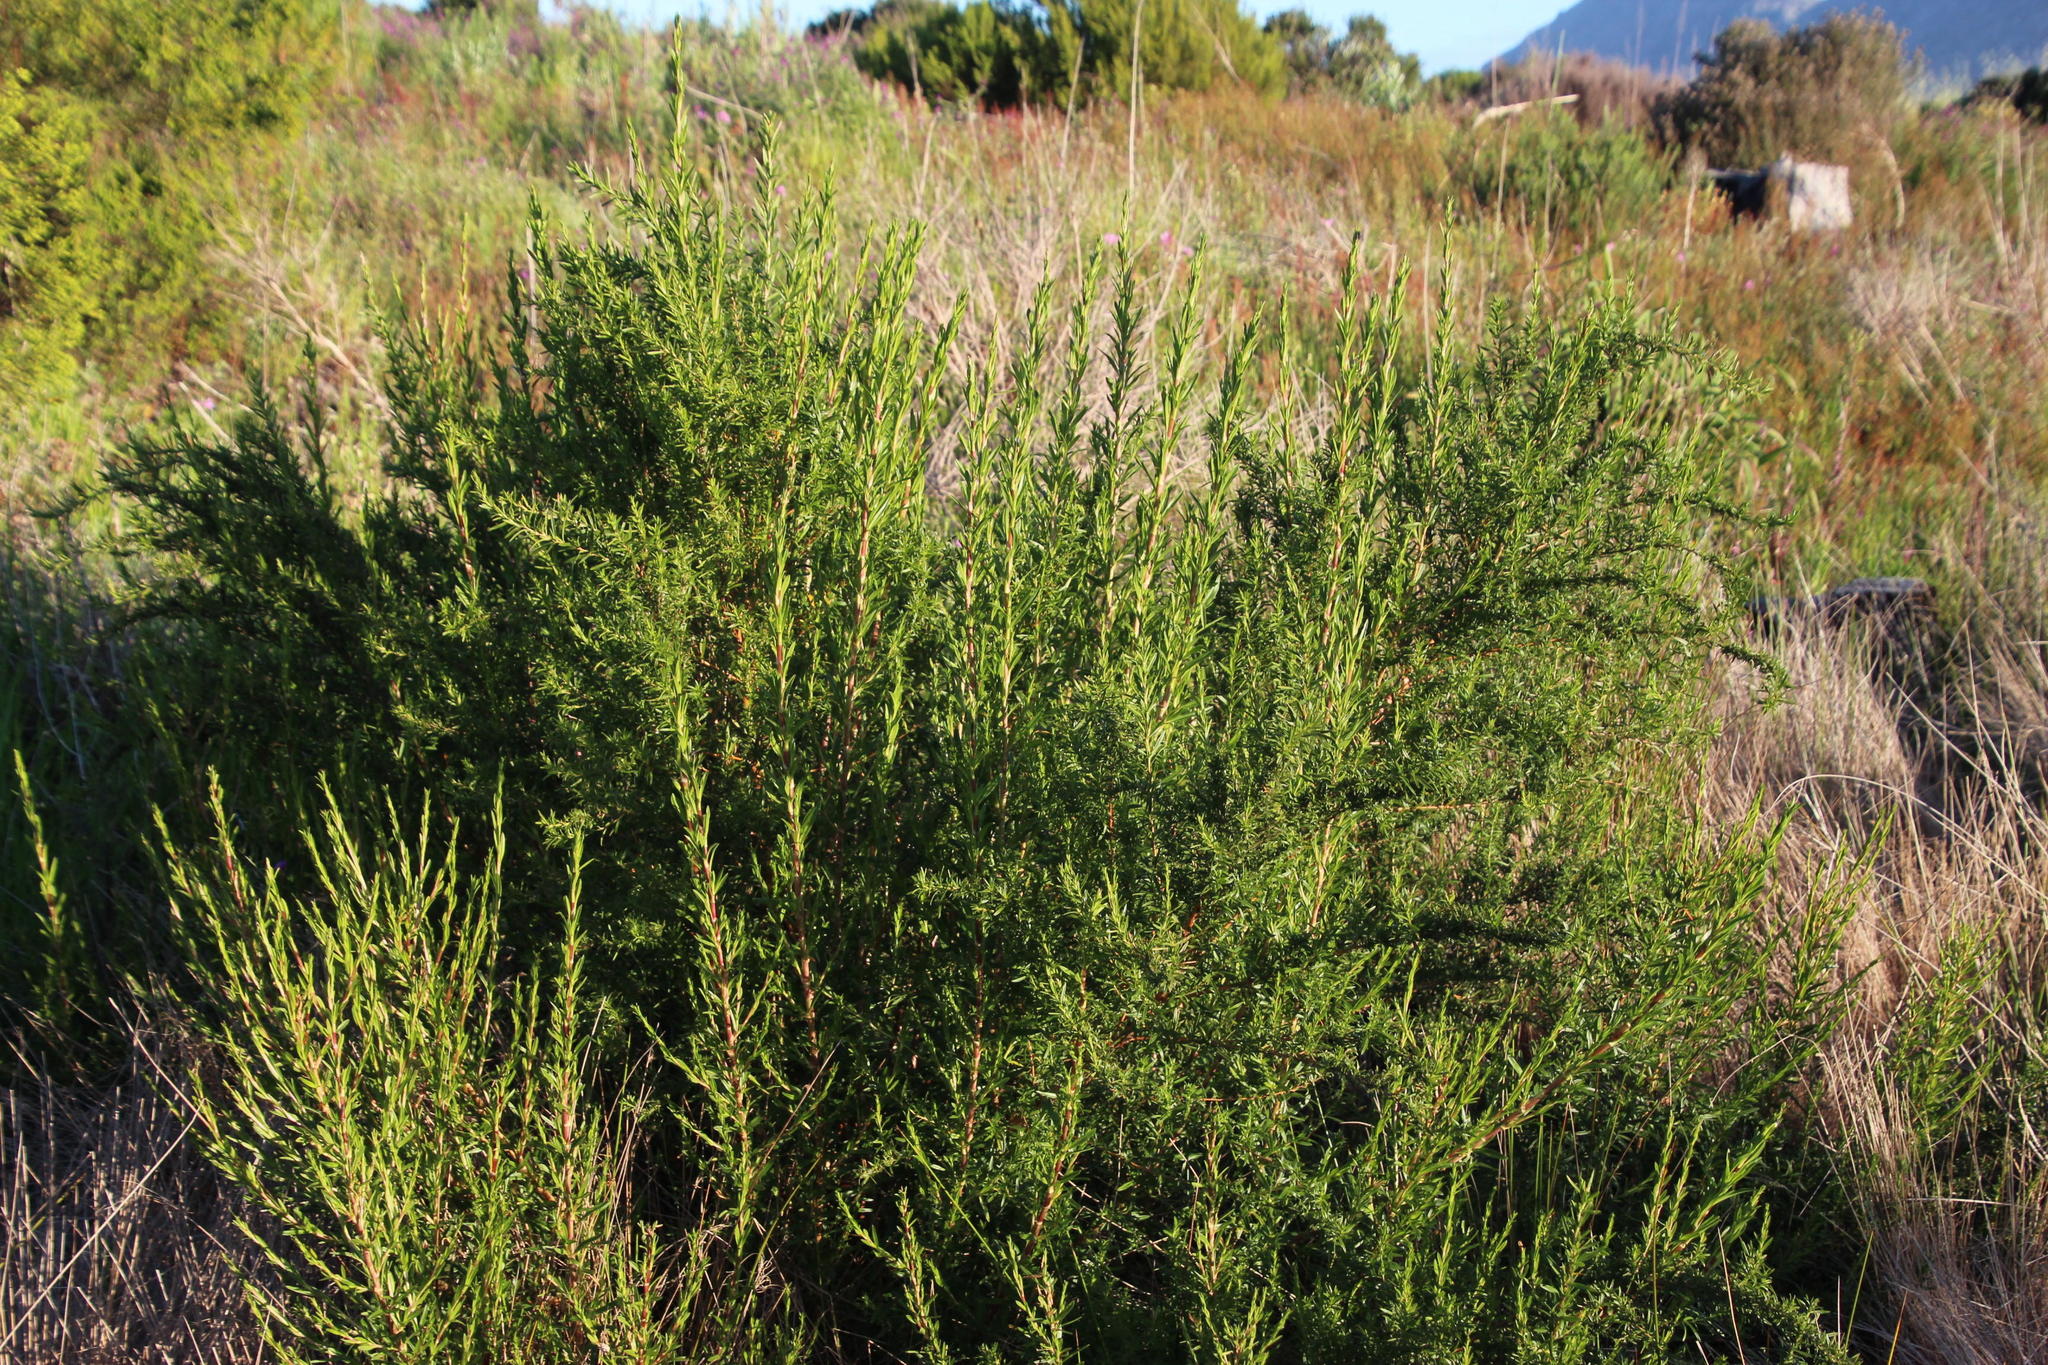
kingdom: Plantae
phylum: Tracheophyta
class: Magnoliopsida
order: Rosales
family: Rosaceae
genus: Cliffortia
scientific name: Cliffortia longifolia
